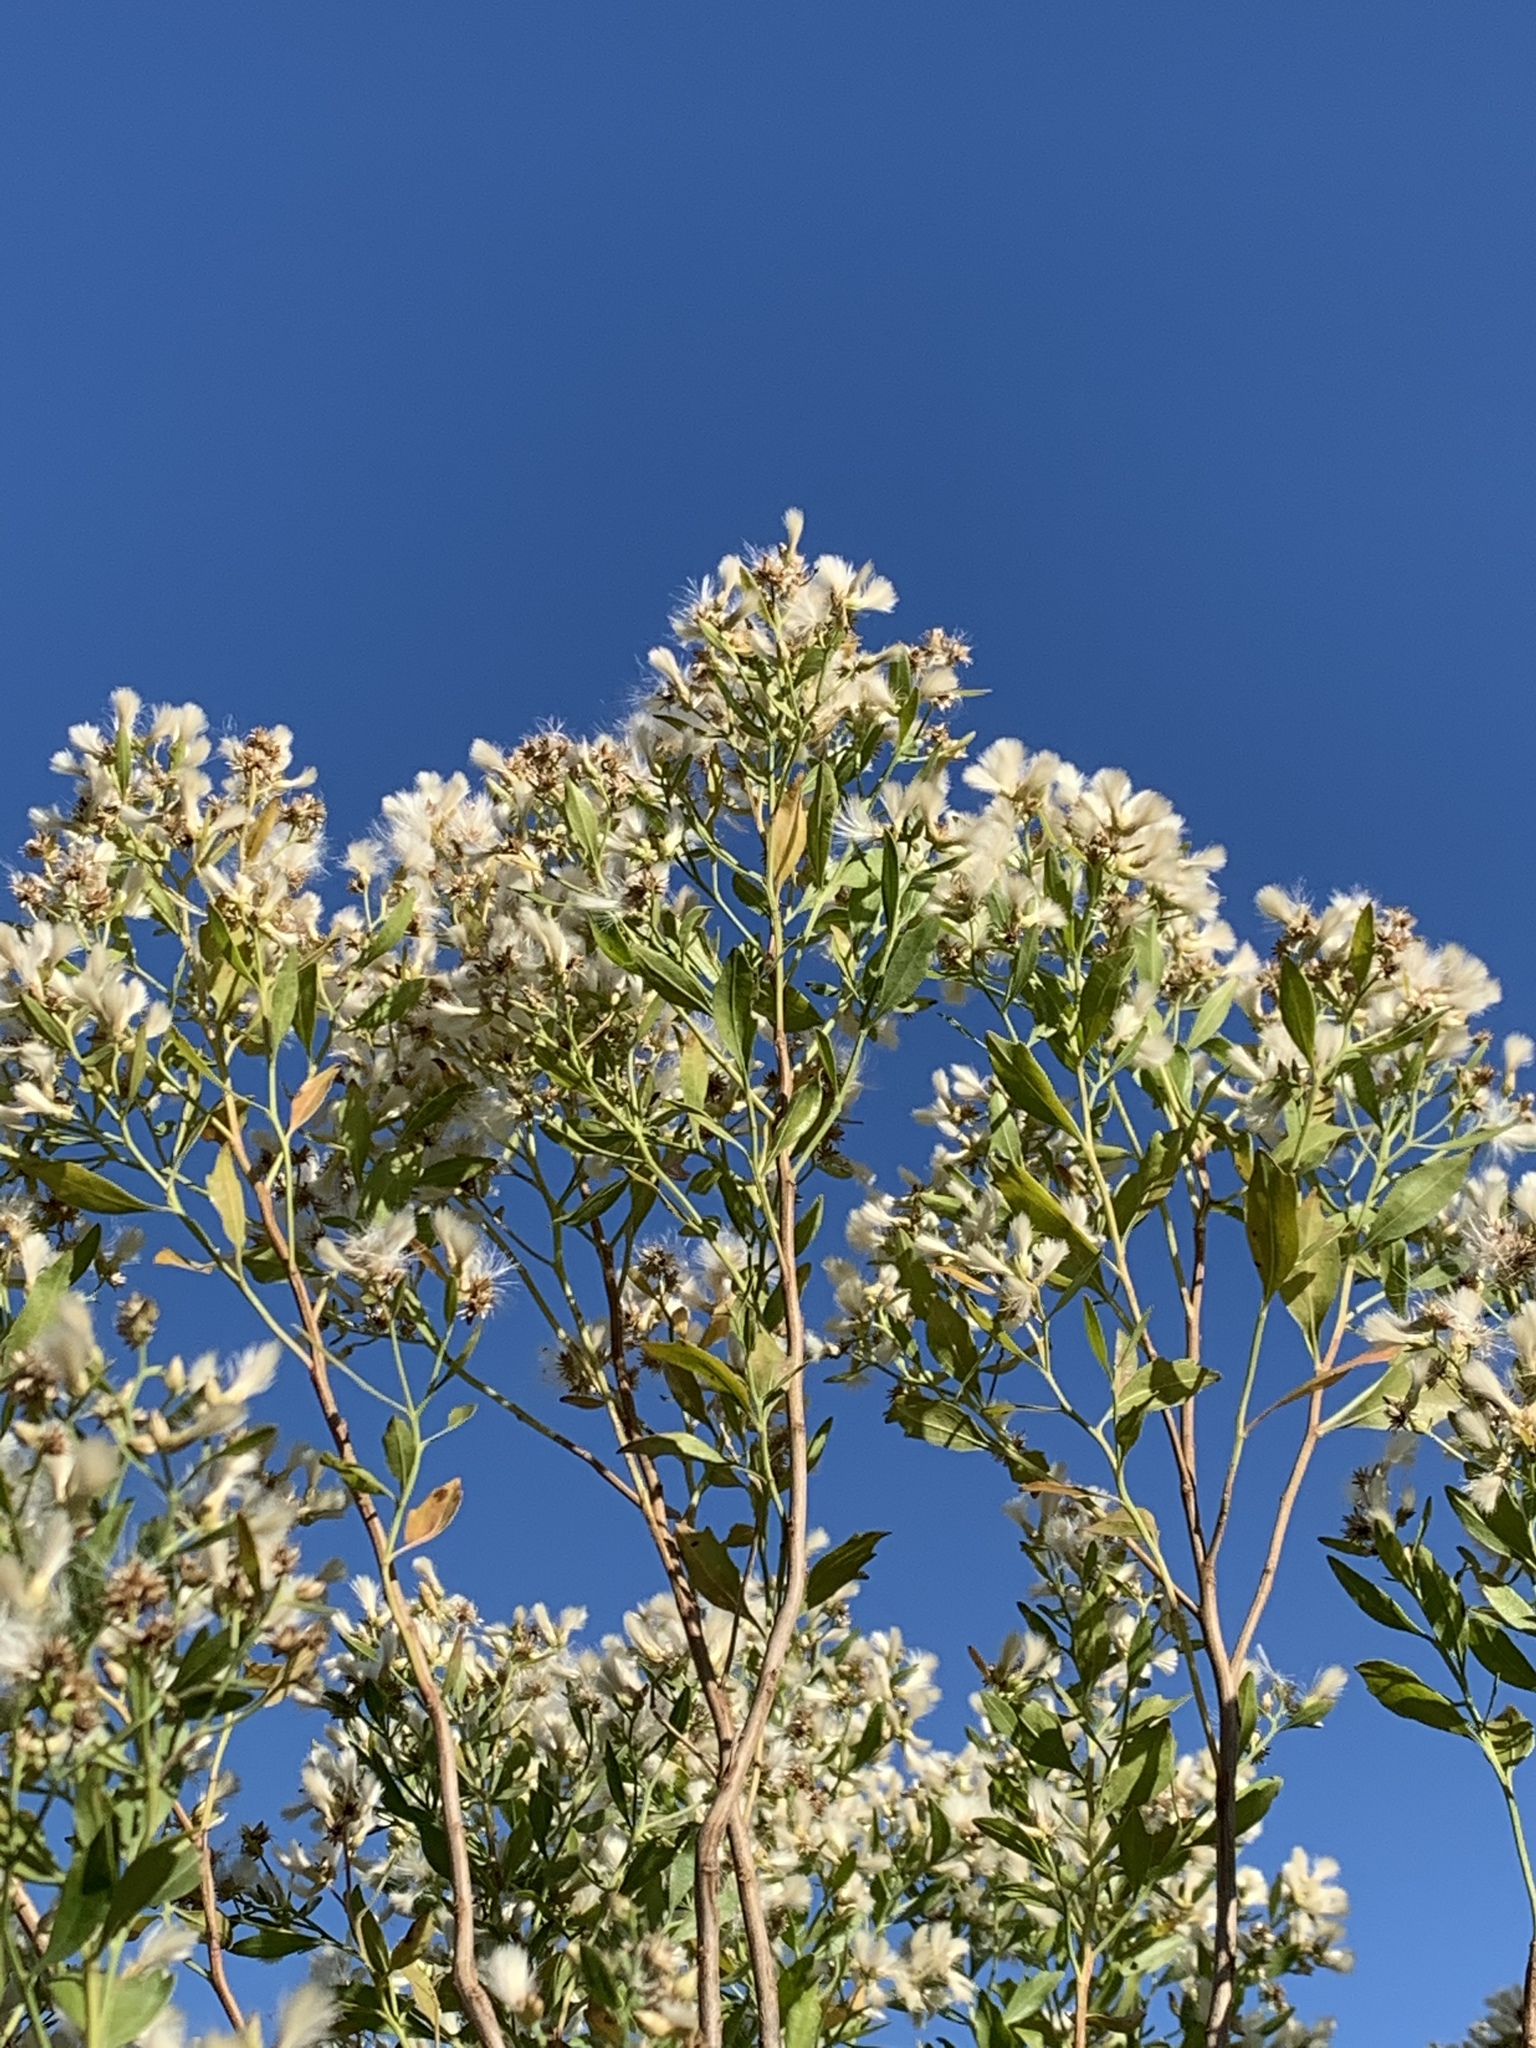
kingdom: Plantae
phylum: Tracheophyta
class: Magnoliopsida
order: Asterales
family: Asteraceae
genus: Baccharis
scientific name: Baccharis halimifolia
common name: Eastern baccharis
